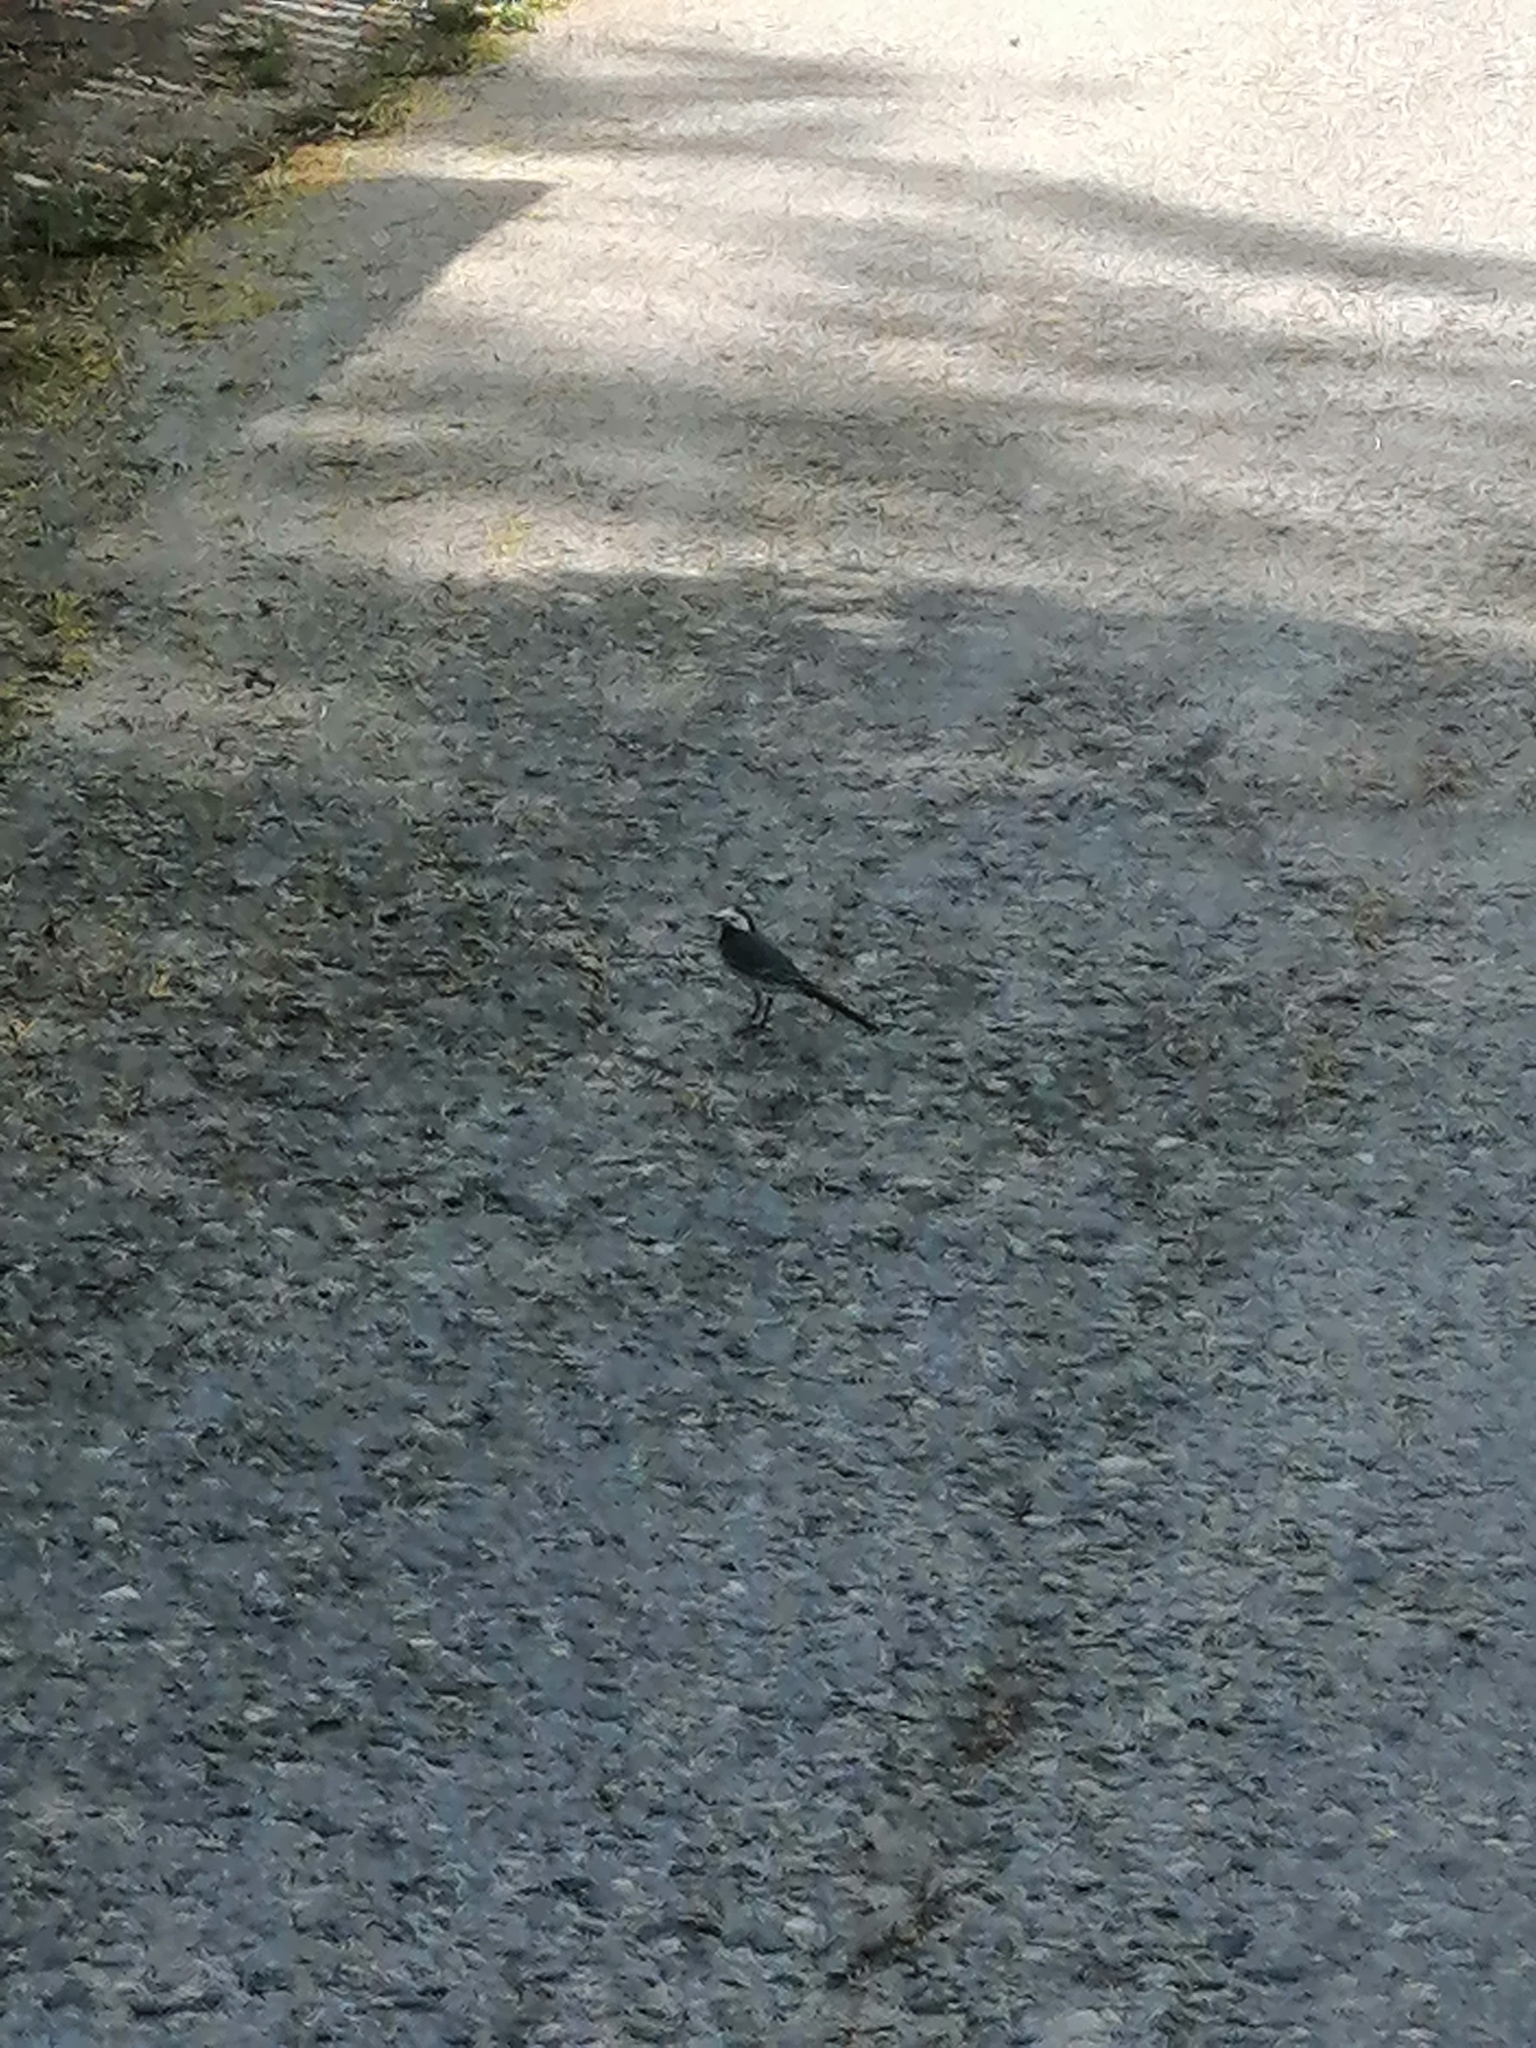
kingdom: Animalia
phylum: Chordata
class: Aves
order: Passeriformes
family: Motacillidae
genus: Motacilla
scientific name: Motacilla alba
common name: White wagtail
